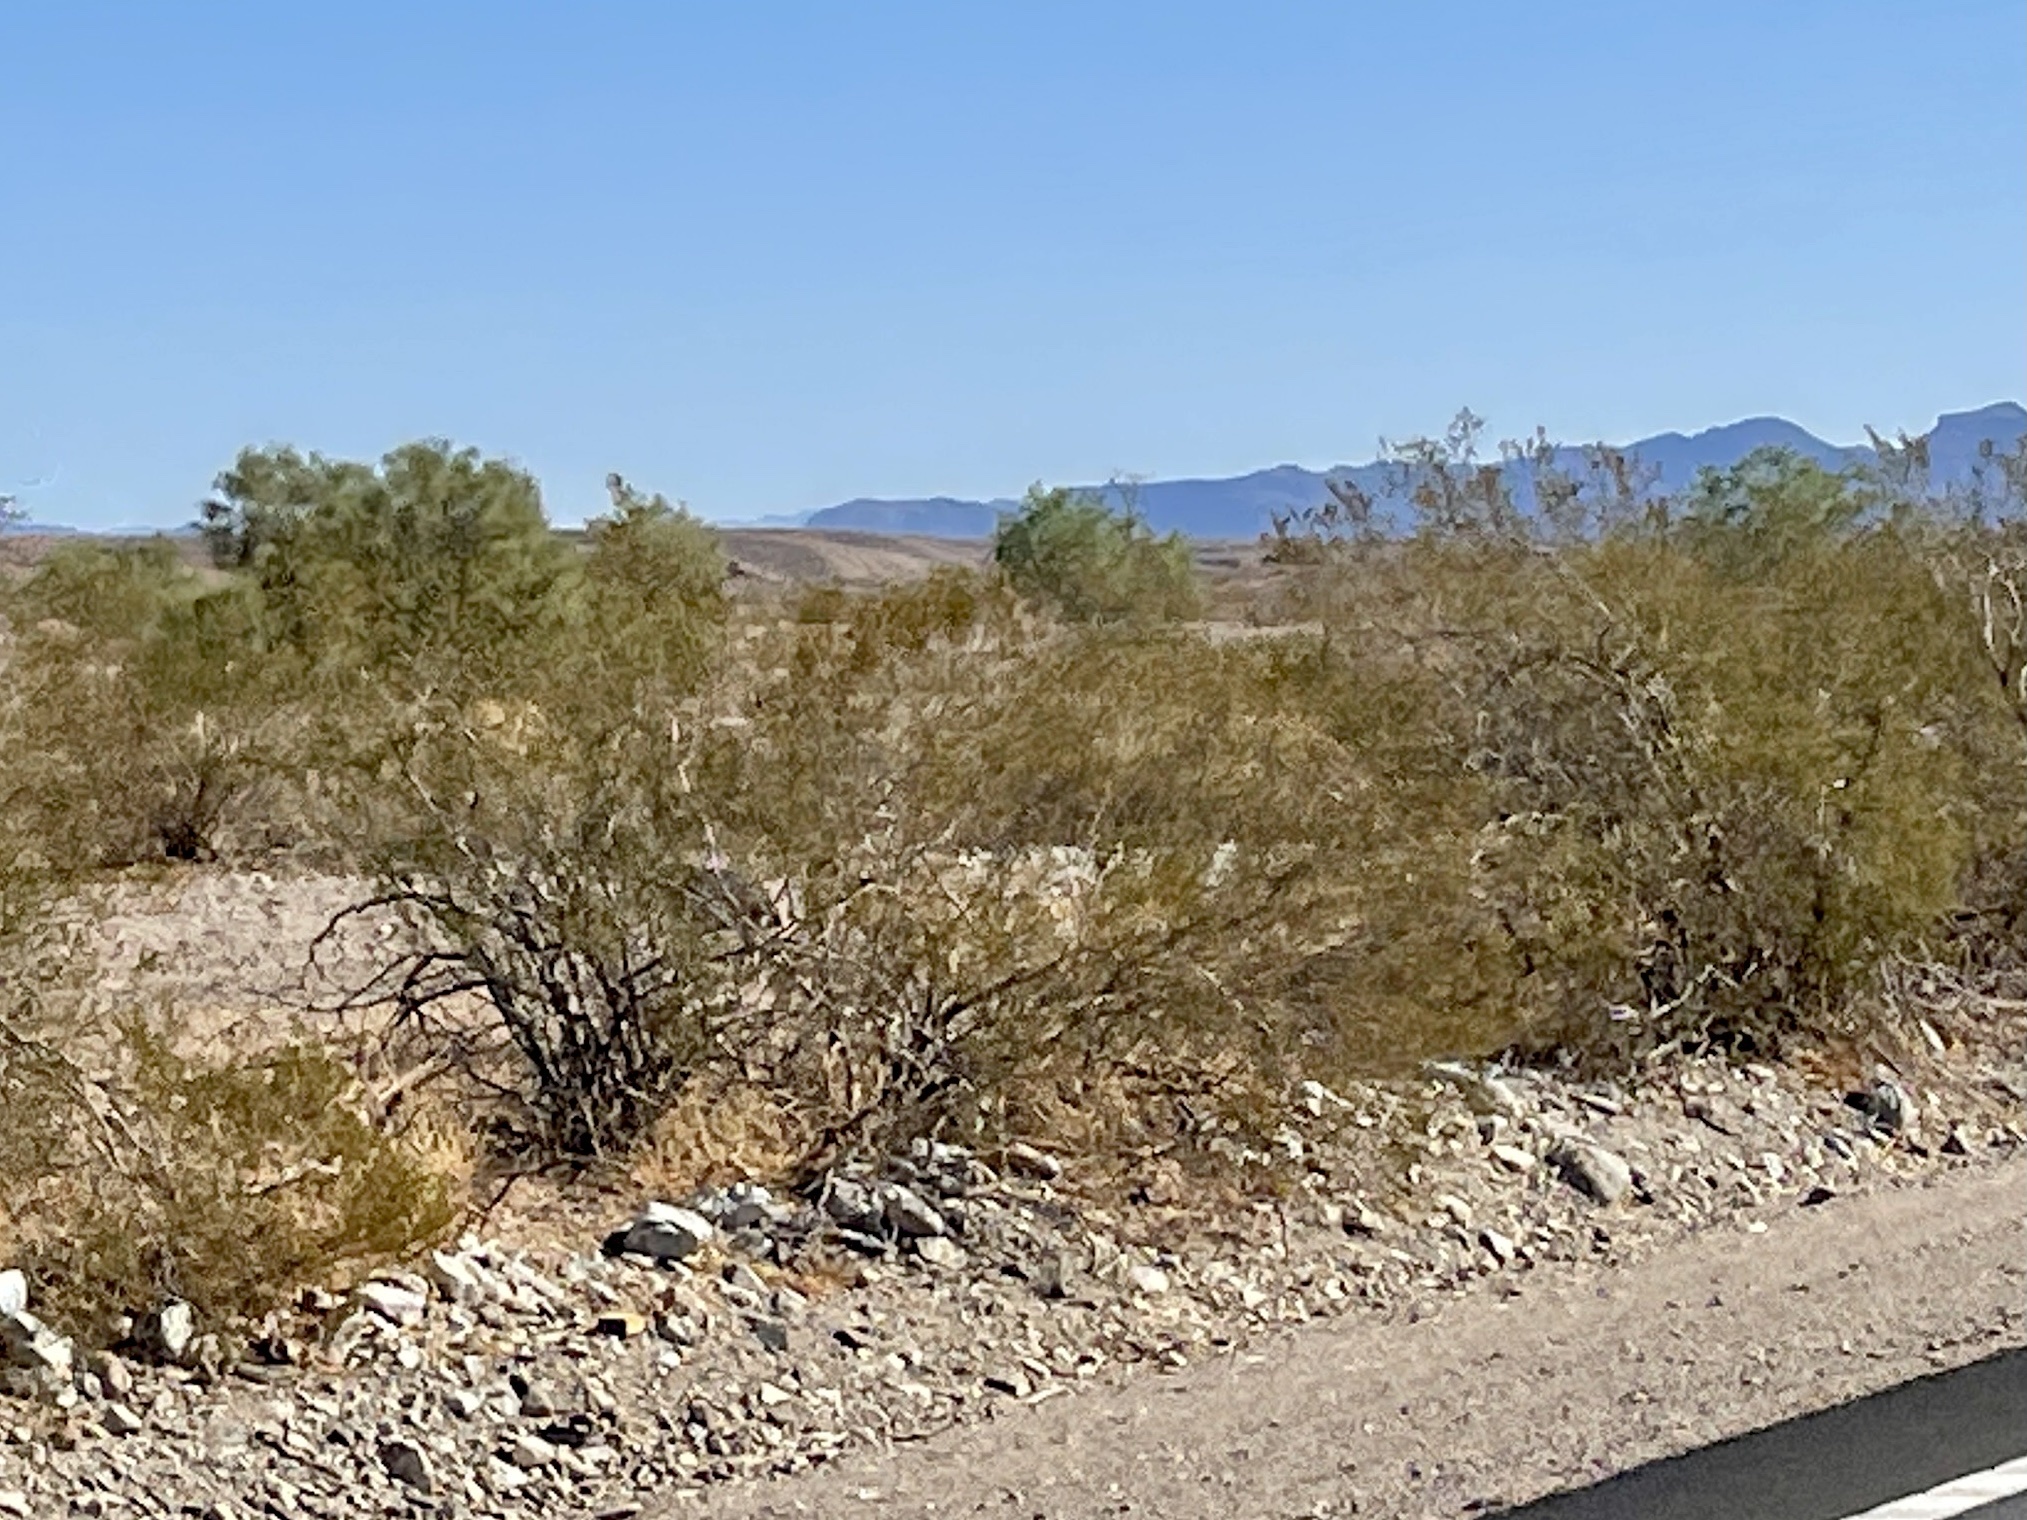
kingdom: Plantae
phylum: Tracheophyta
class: Magnoliopsida
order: Zygophyllales
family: Zygophyllaceae
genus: Larrea
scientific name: Larrea tridentata
